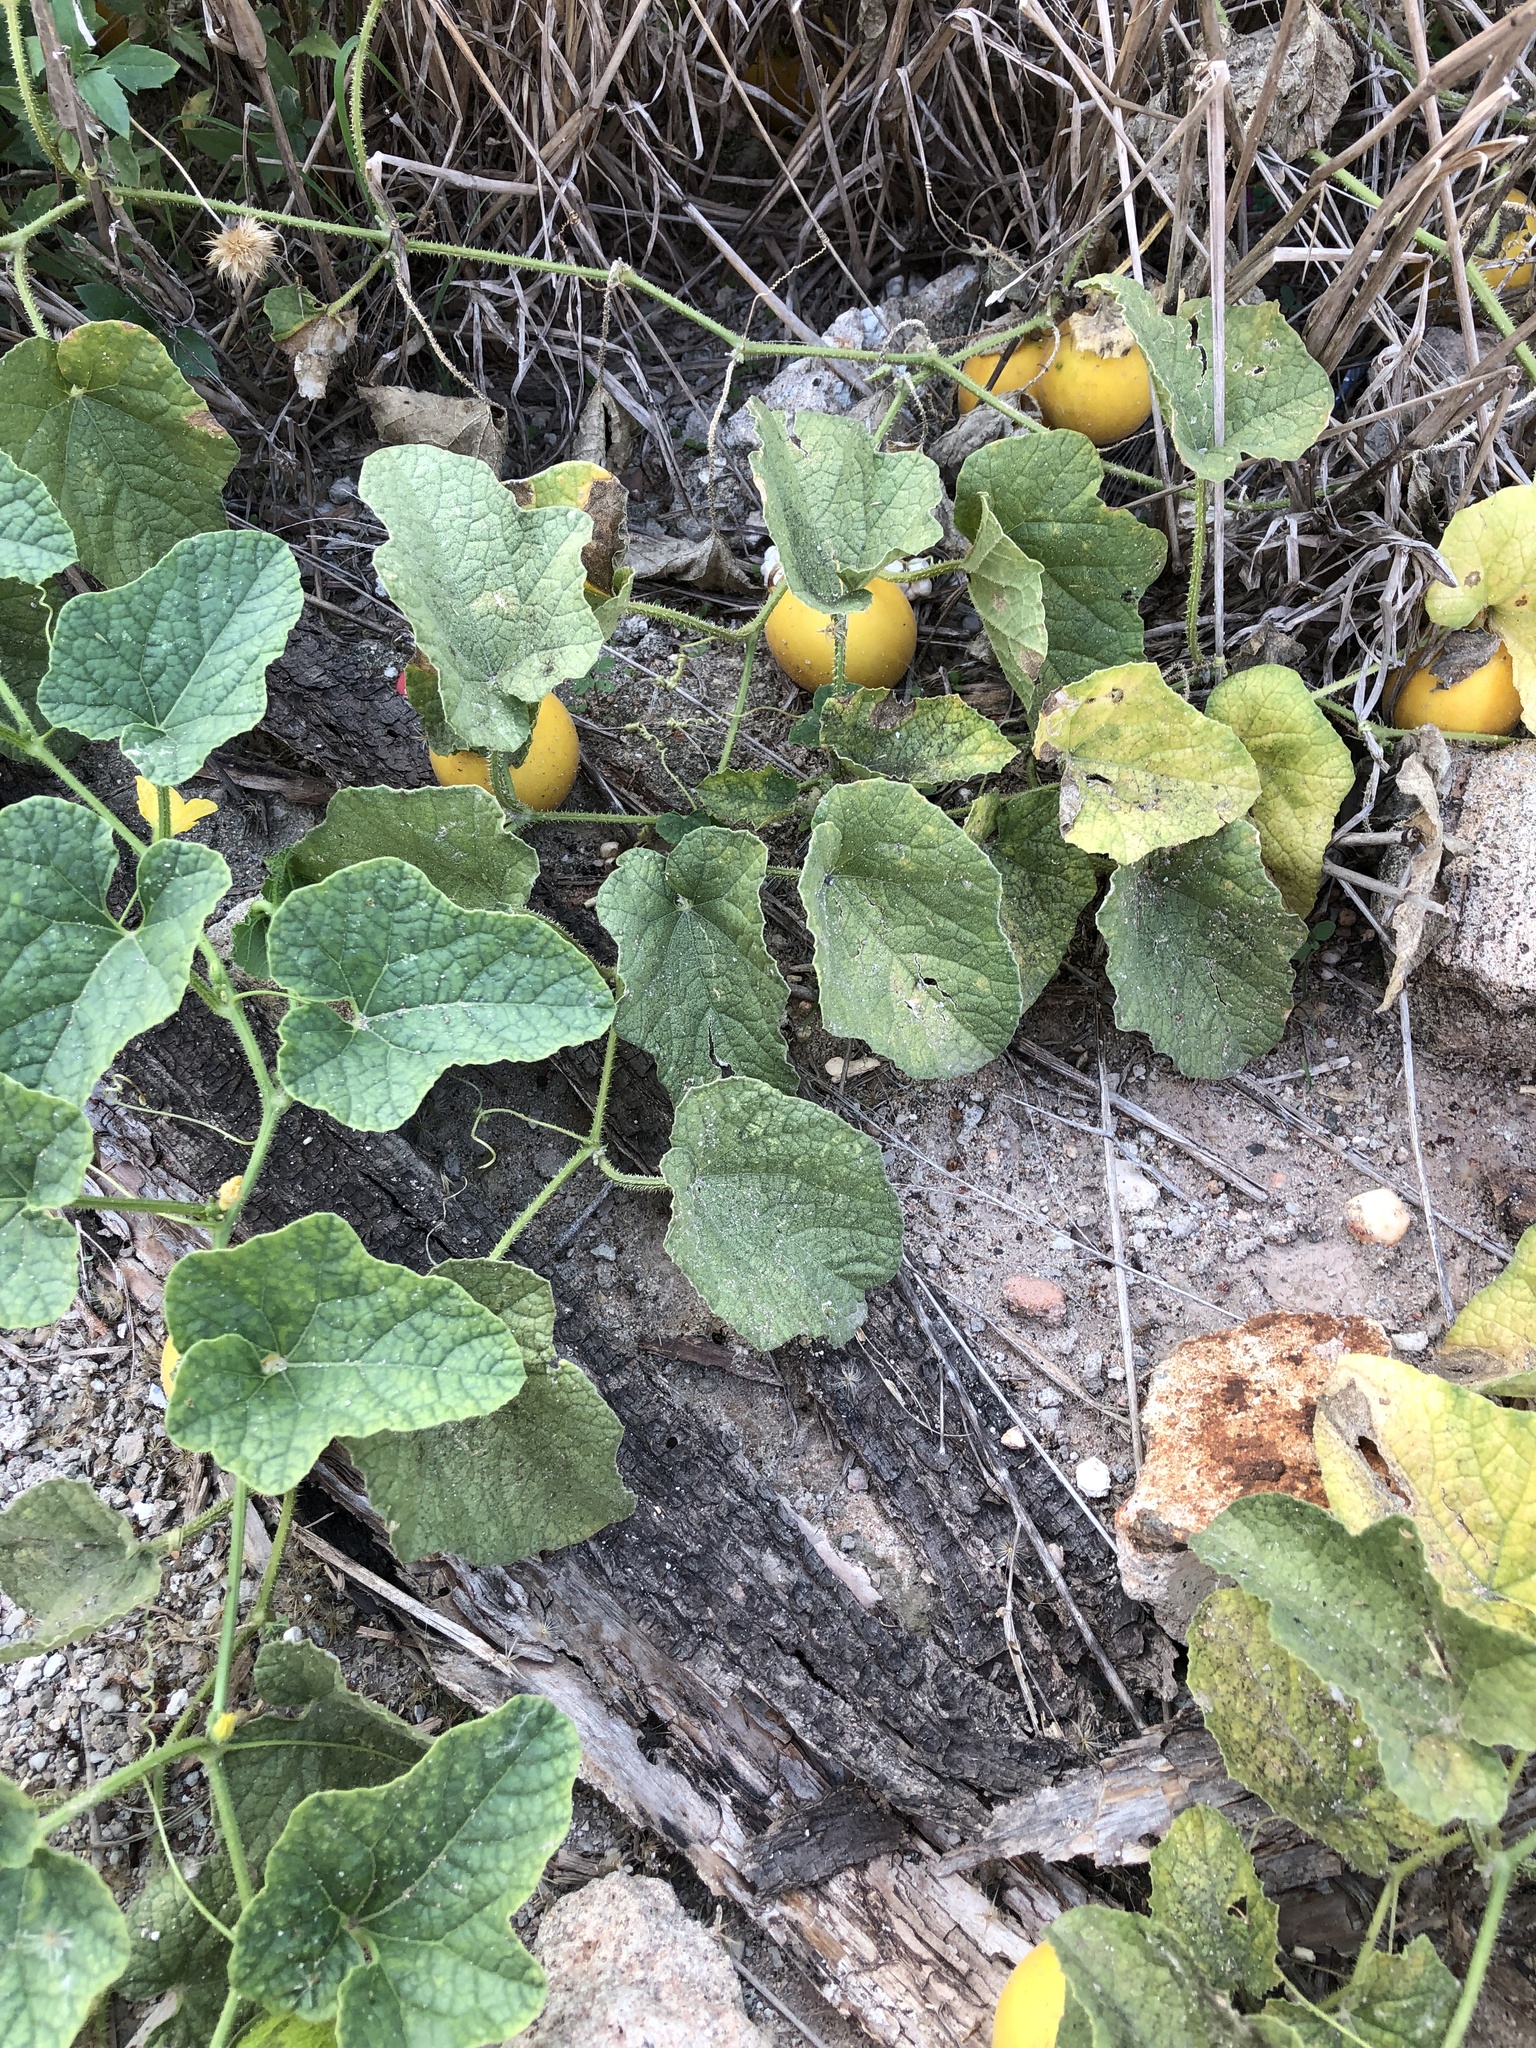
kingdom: Plantae
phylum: Tracheophyta
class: Magnoliopsida
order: Cucurbitales
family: Cucurbitaceae
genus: Cucumis
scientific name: Cucumis melo
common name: Melon
